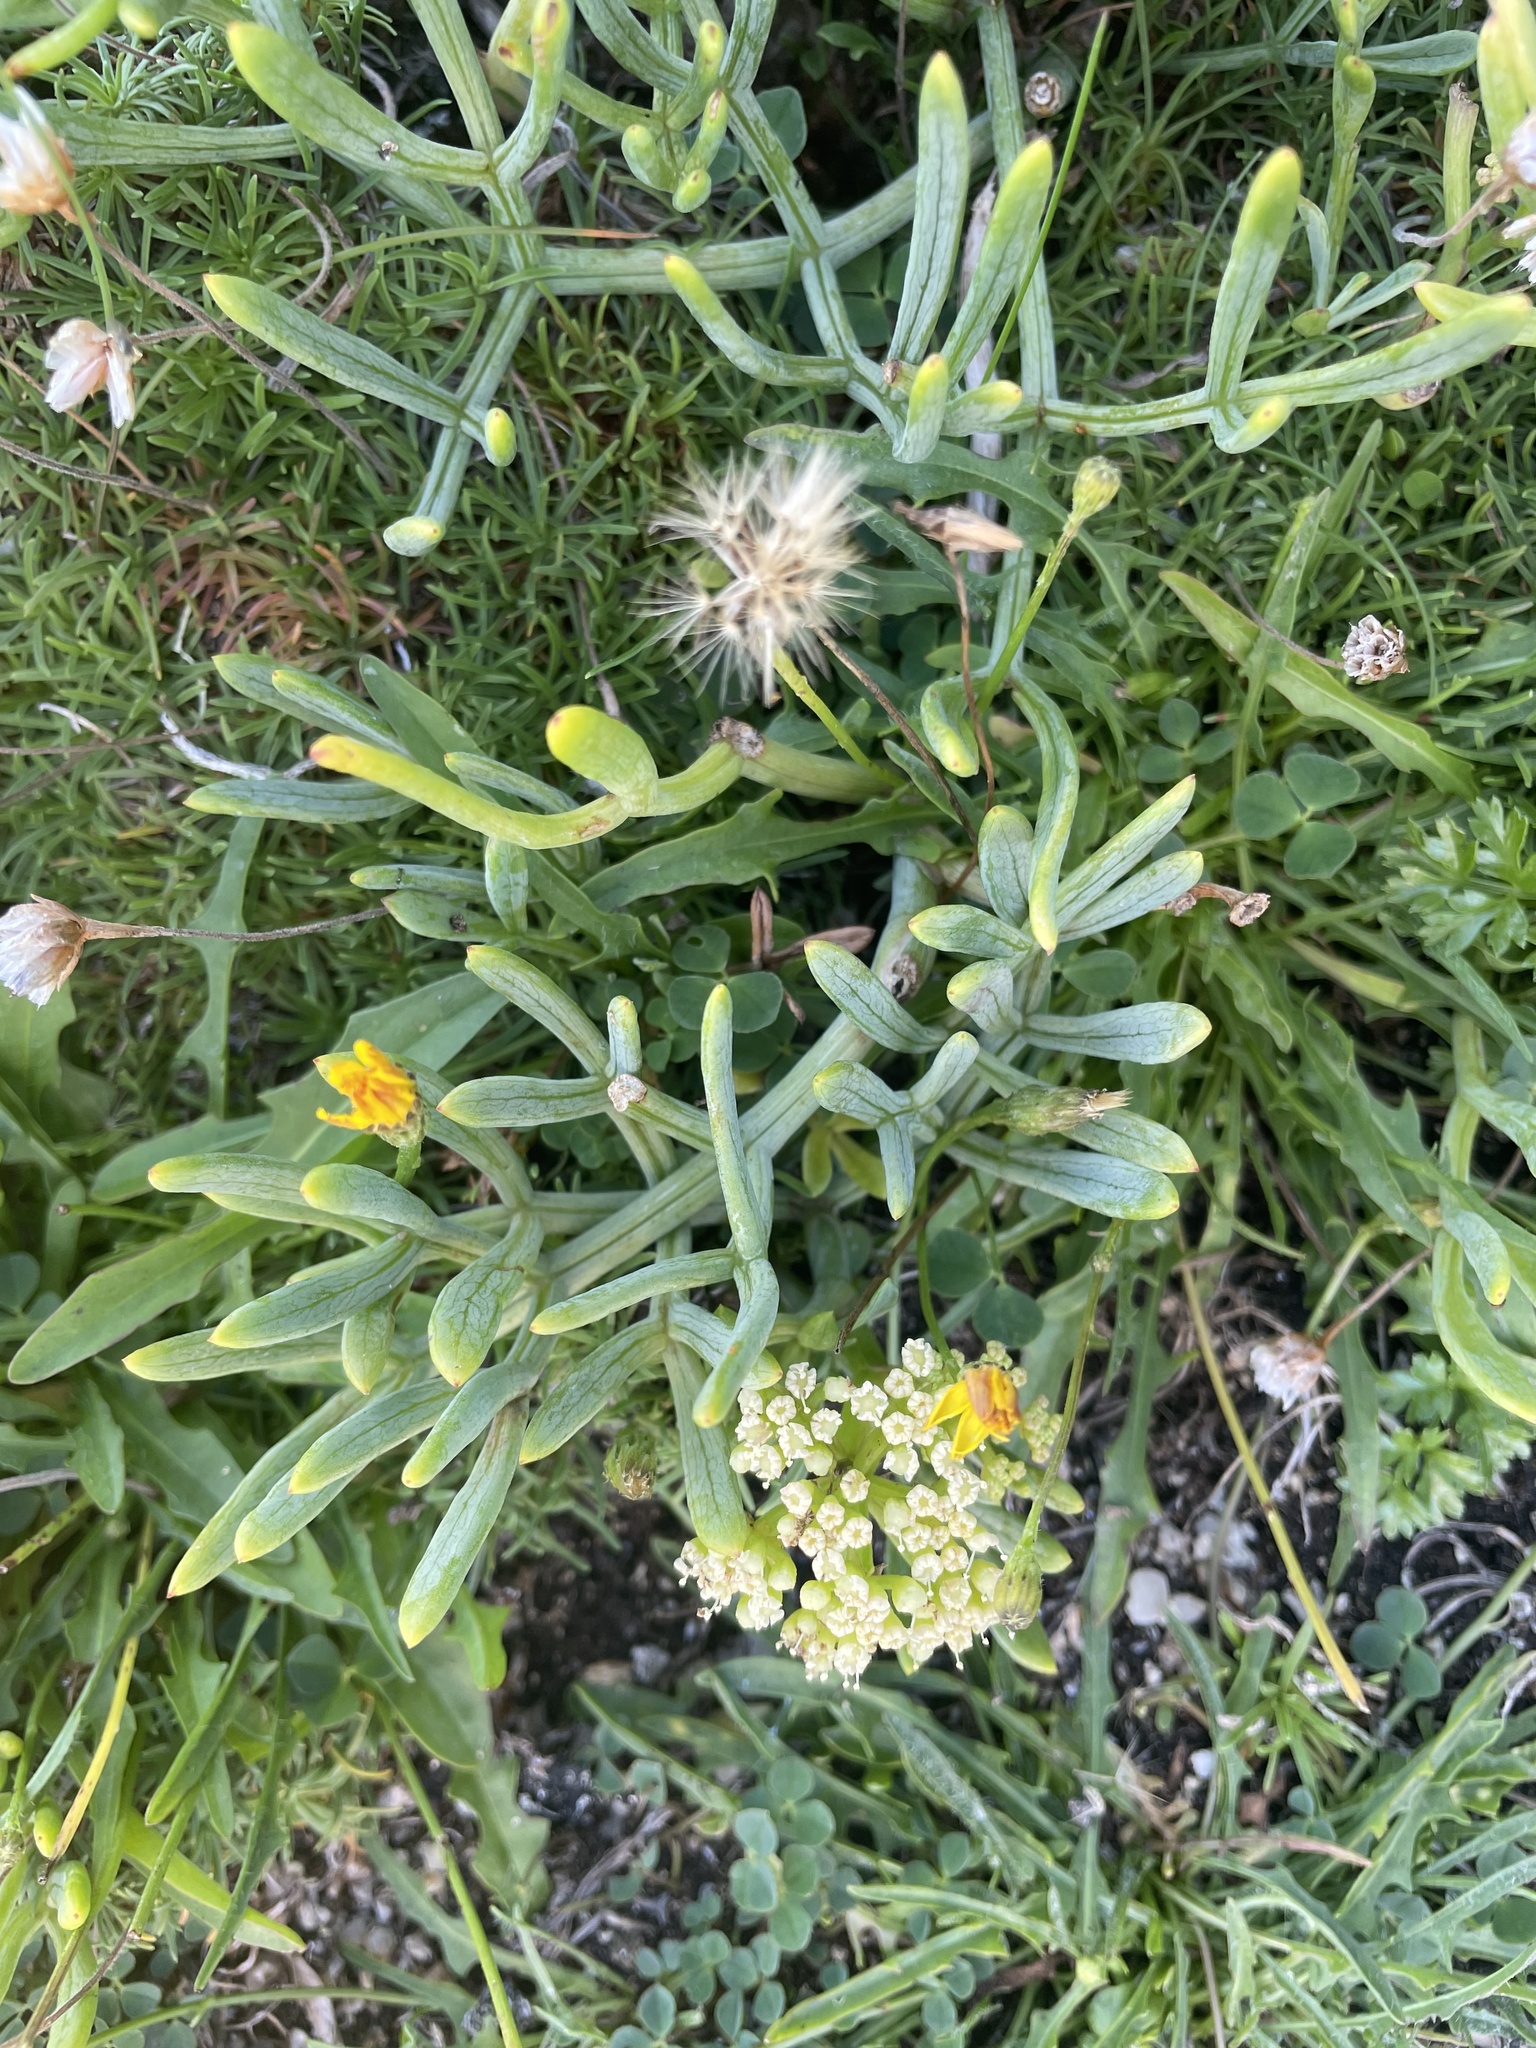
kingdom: Plantae
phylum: Tracheophyta
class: Magnoliopsida
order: Apiales
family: Apiaceae
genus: Crithmum
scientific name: Crithmum maritimum
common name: Rock samphire
